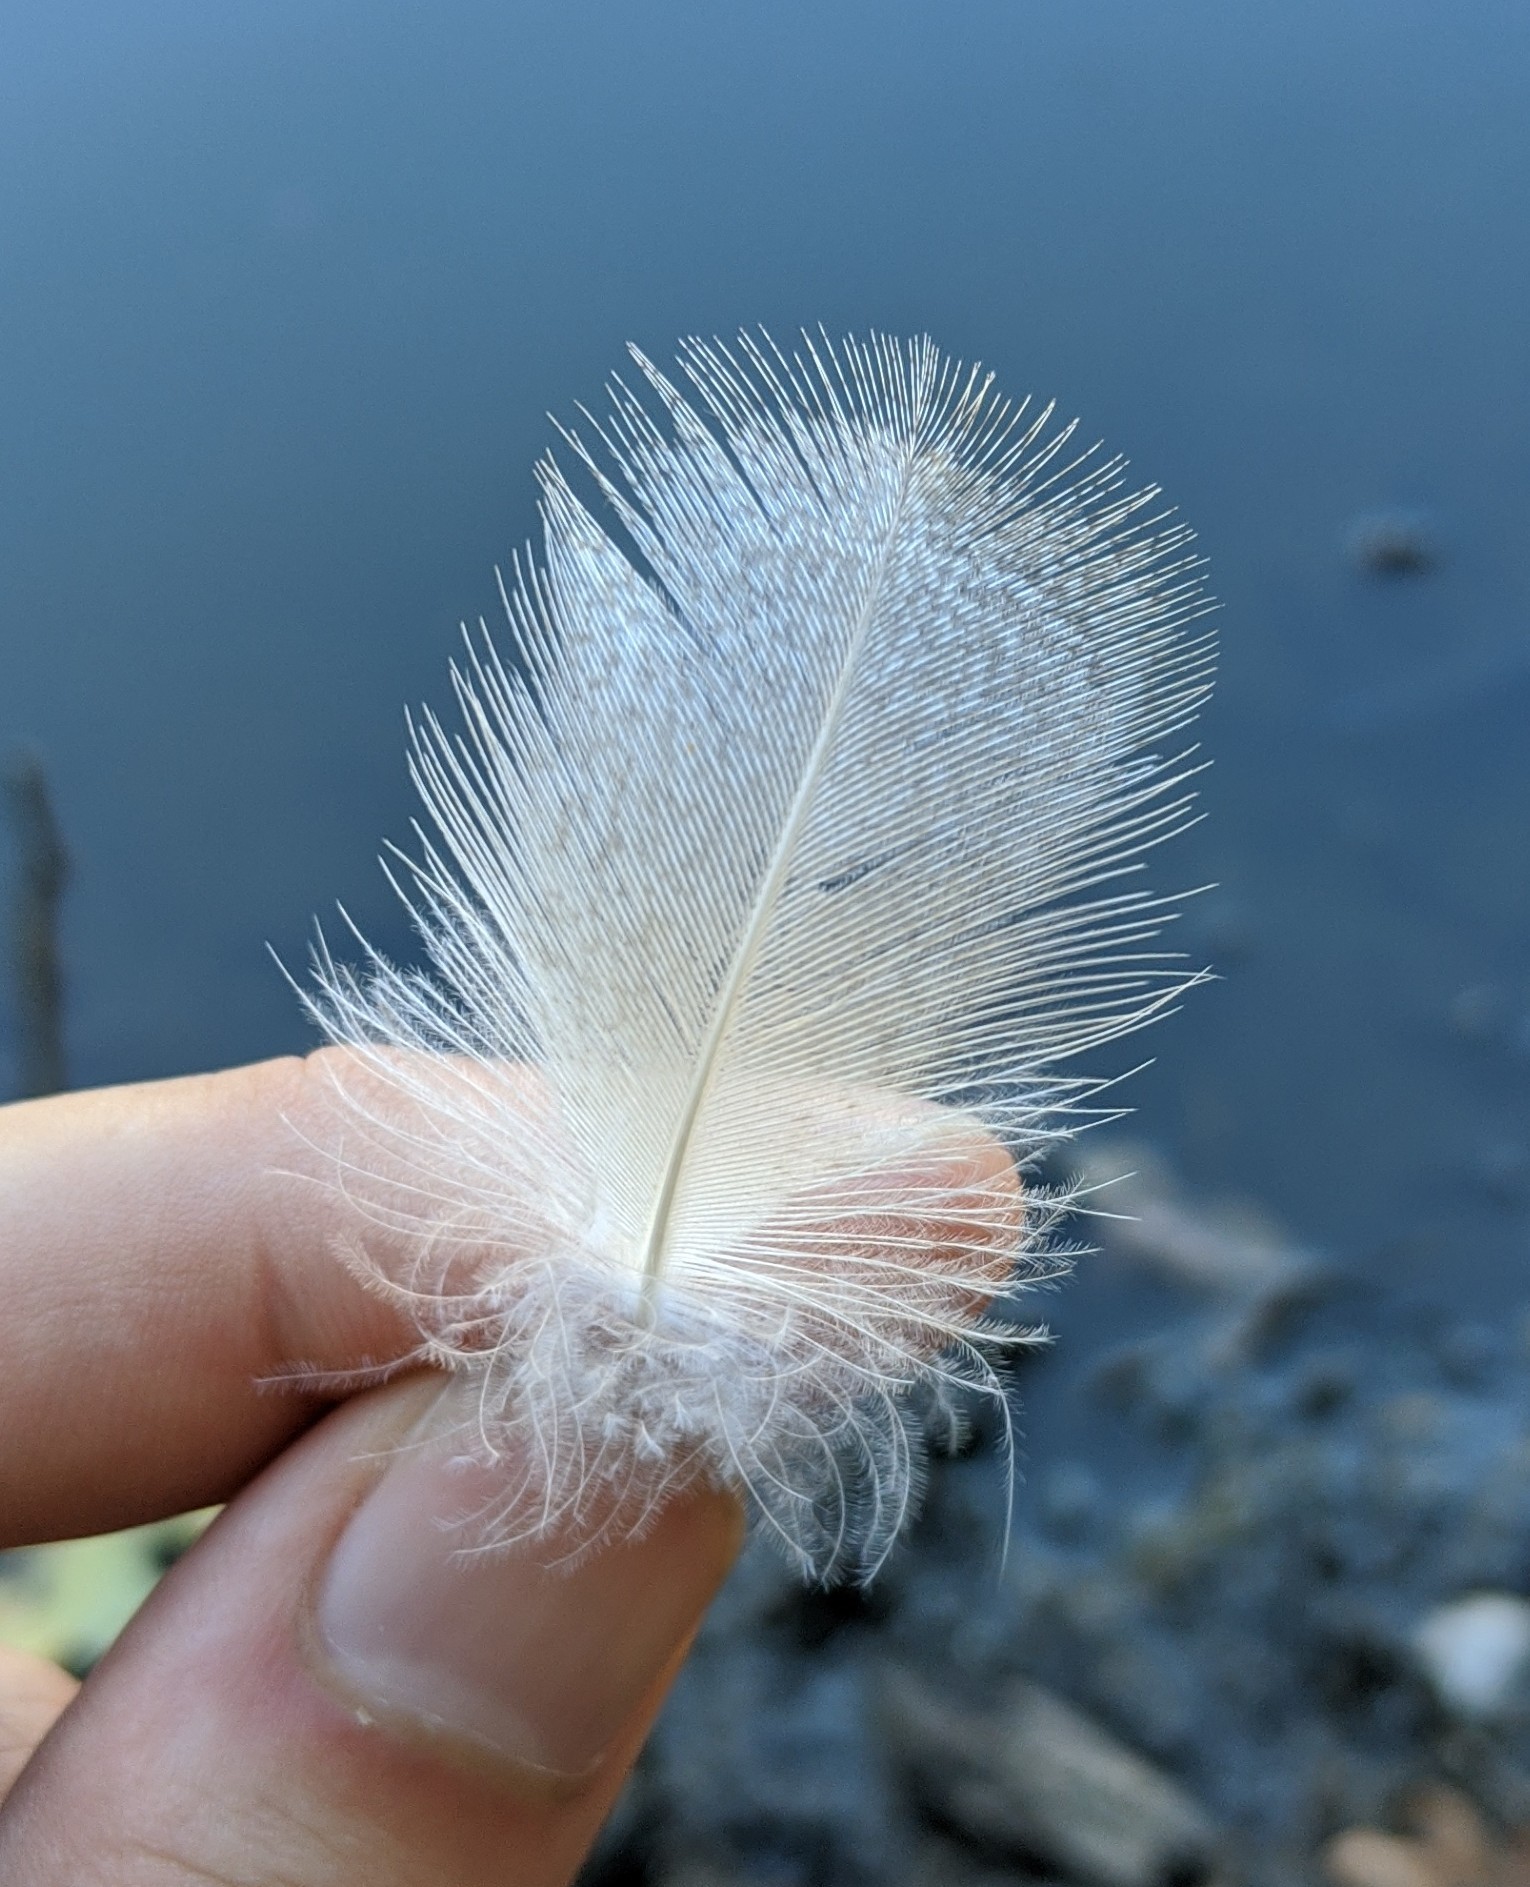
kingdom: Animalia
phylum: Chordata
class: Aves
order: Anseriformes
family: Anatidae
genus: Anas
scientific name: Anas platyrhynchos
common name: Mallard
